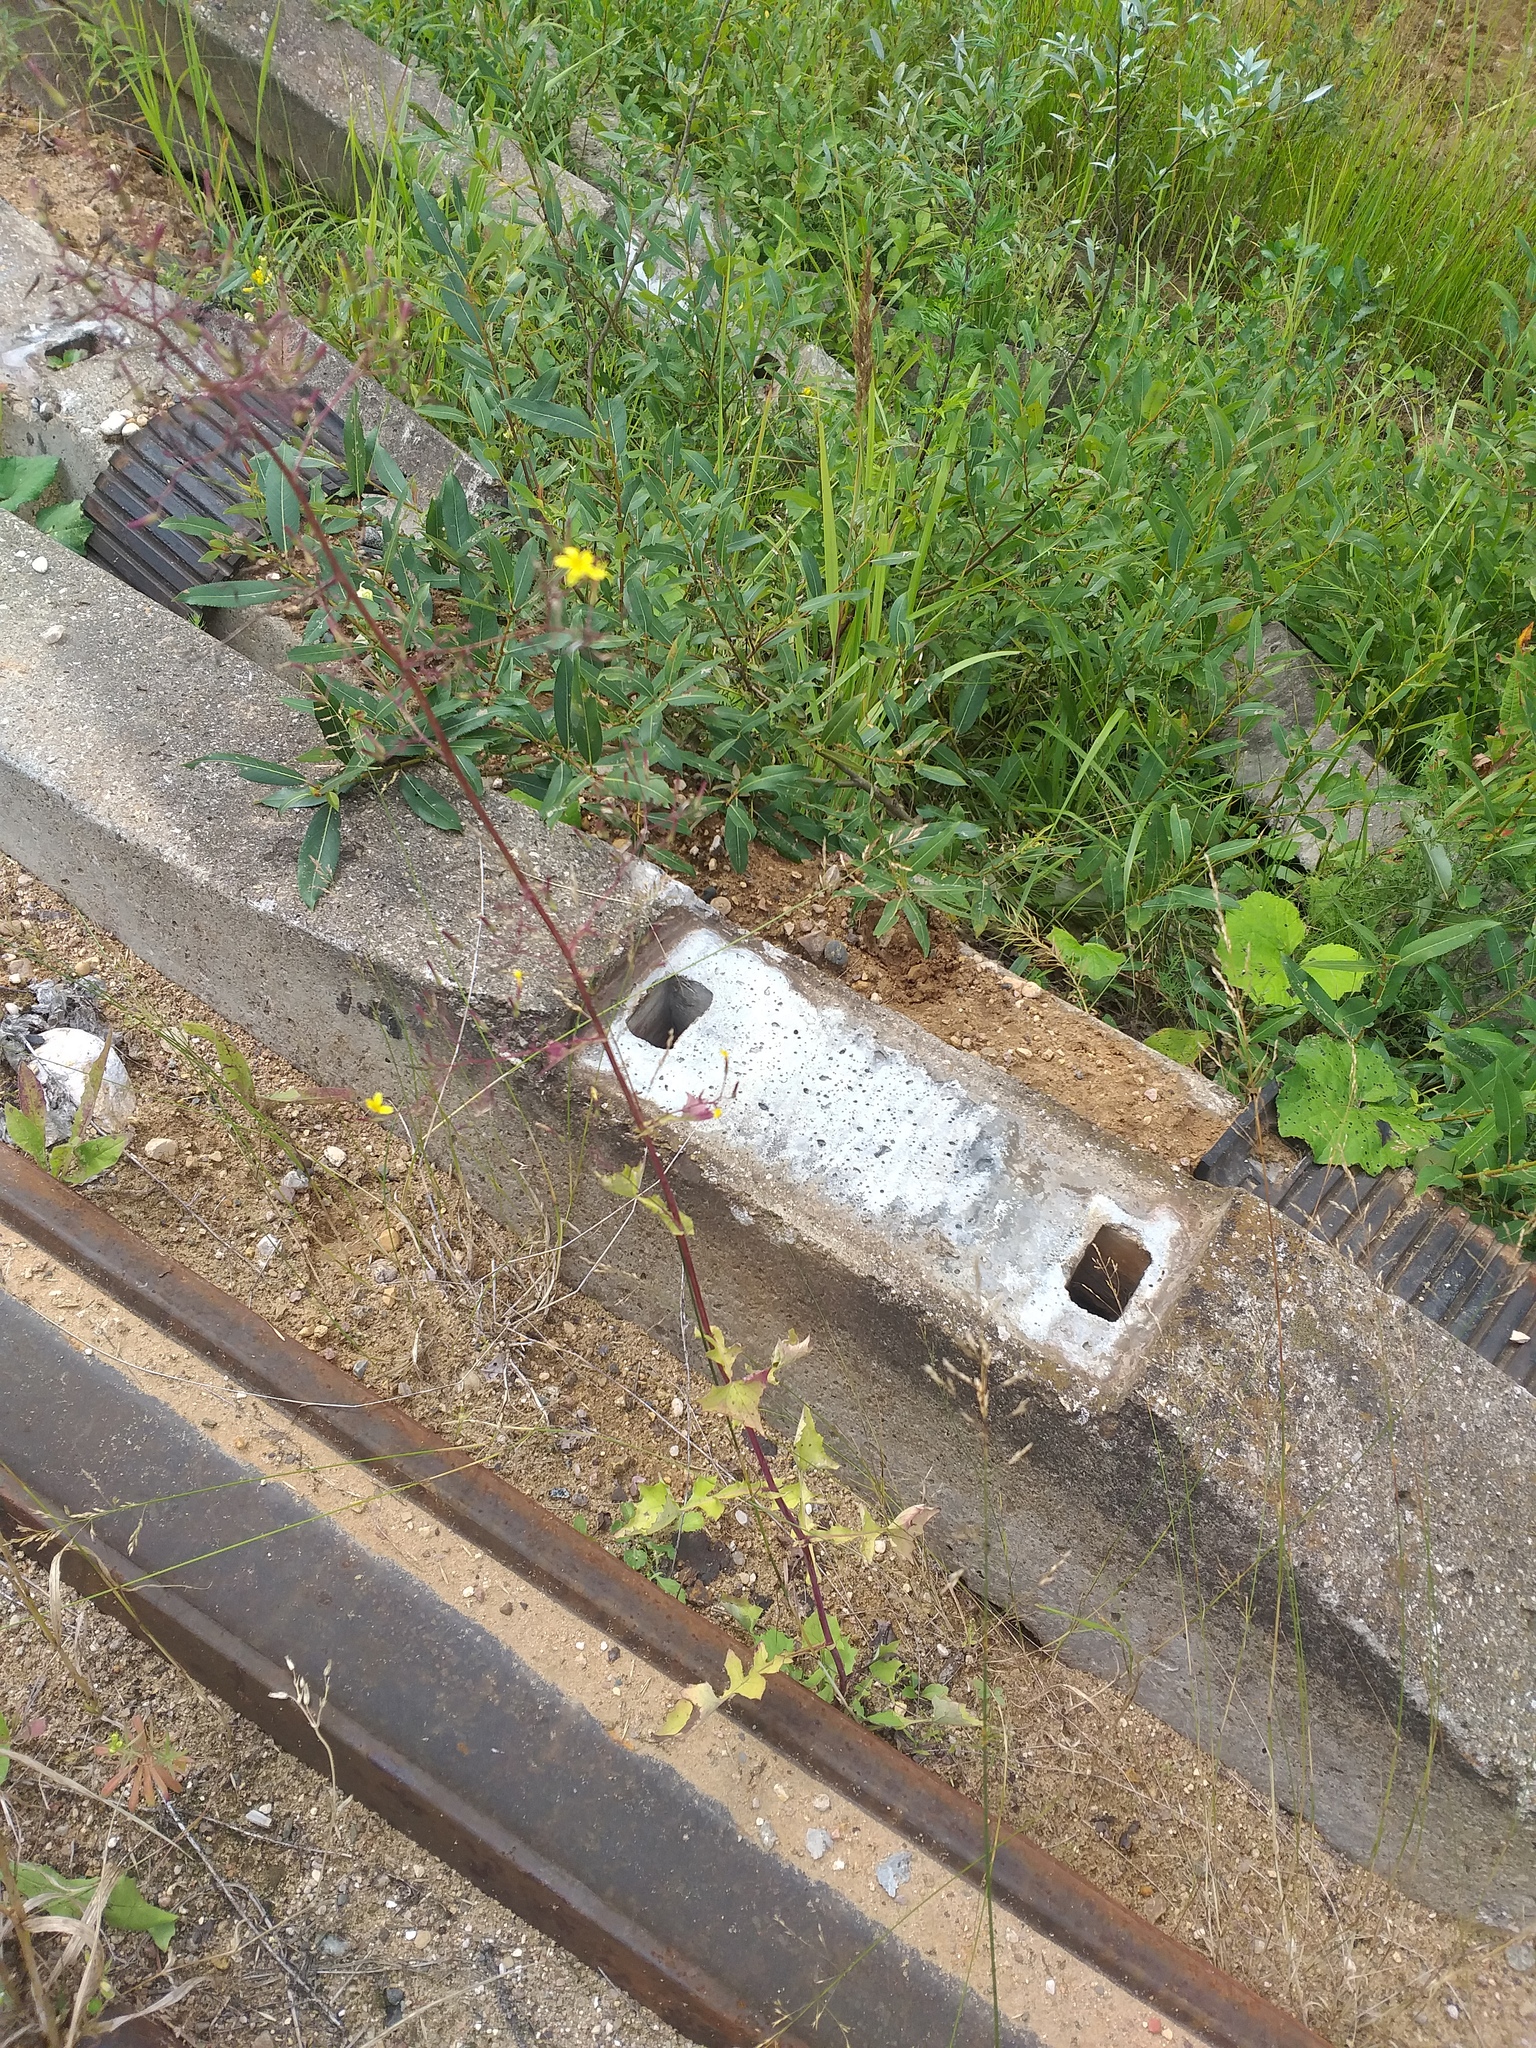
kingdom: Plantae
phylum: Tracheophyta
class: Magnoliopsida
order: Asterales
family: Asteraceae
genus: Mycelis
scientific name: Mycelis muralis
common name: Wall lettuce
